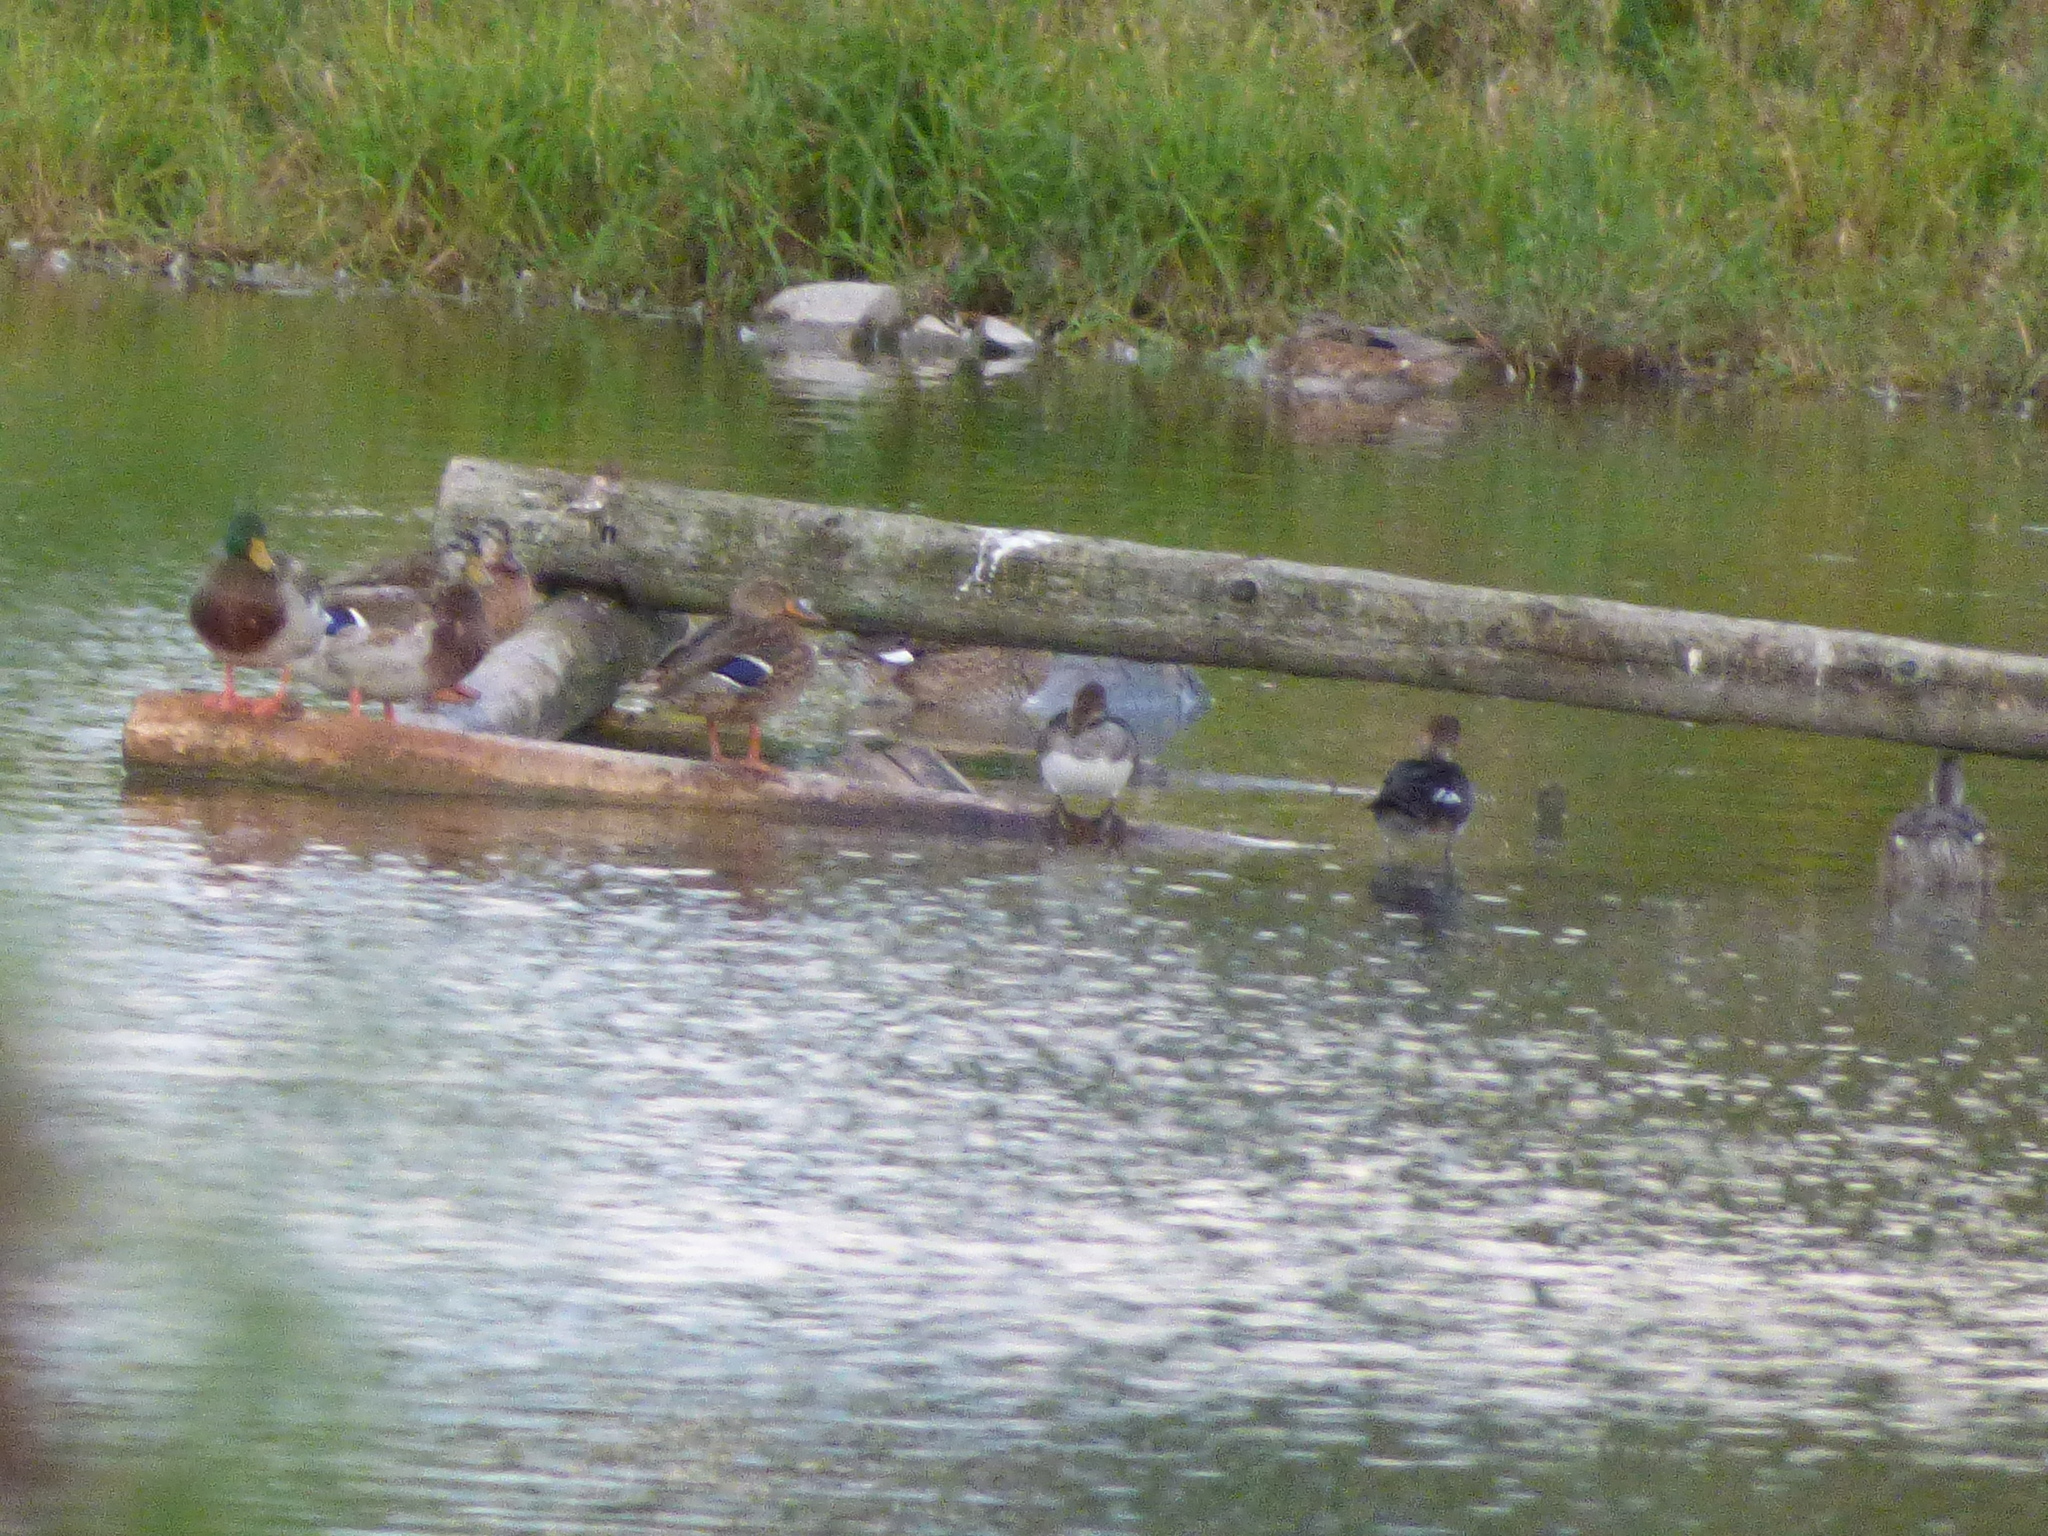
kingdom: Animalia
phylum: Chordata
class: Aves
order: Anseriformes
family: Anatidae
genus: Anas
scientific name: Anas platyrhynchos
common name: Mallard
